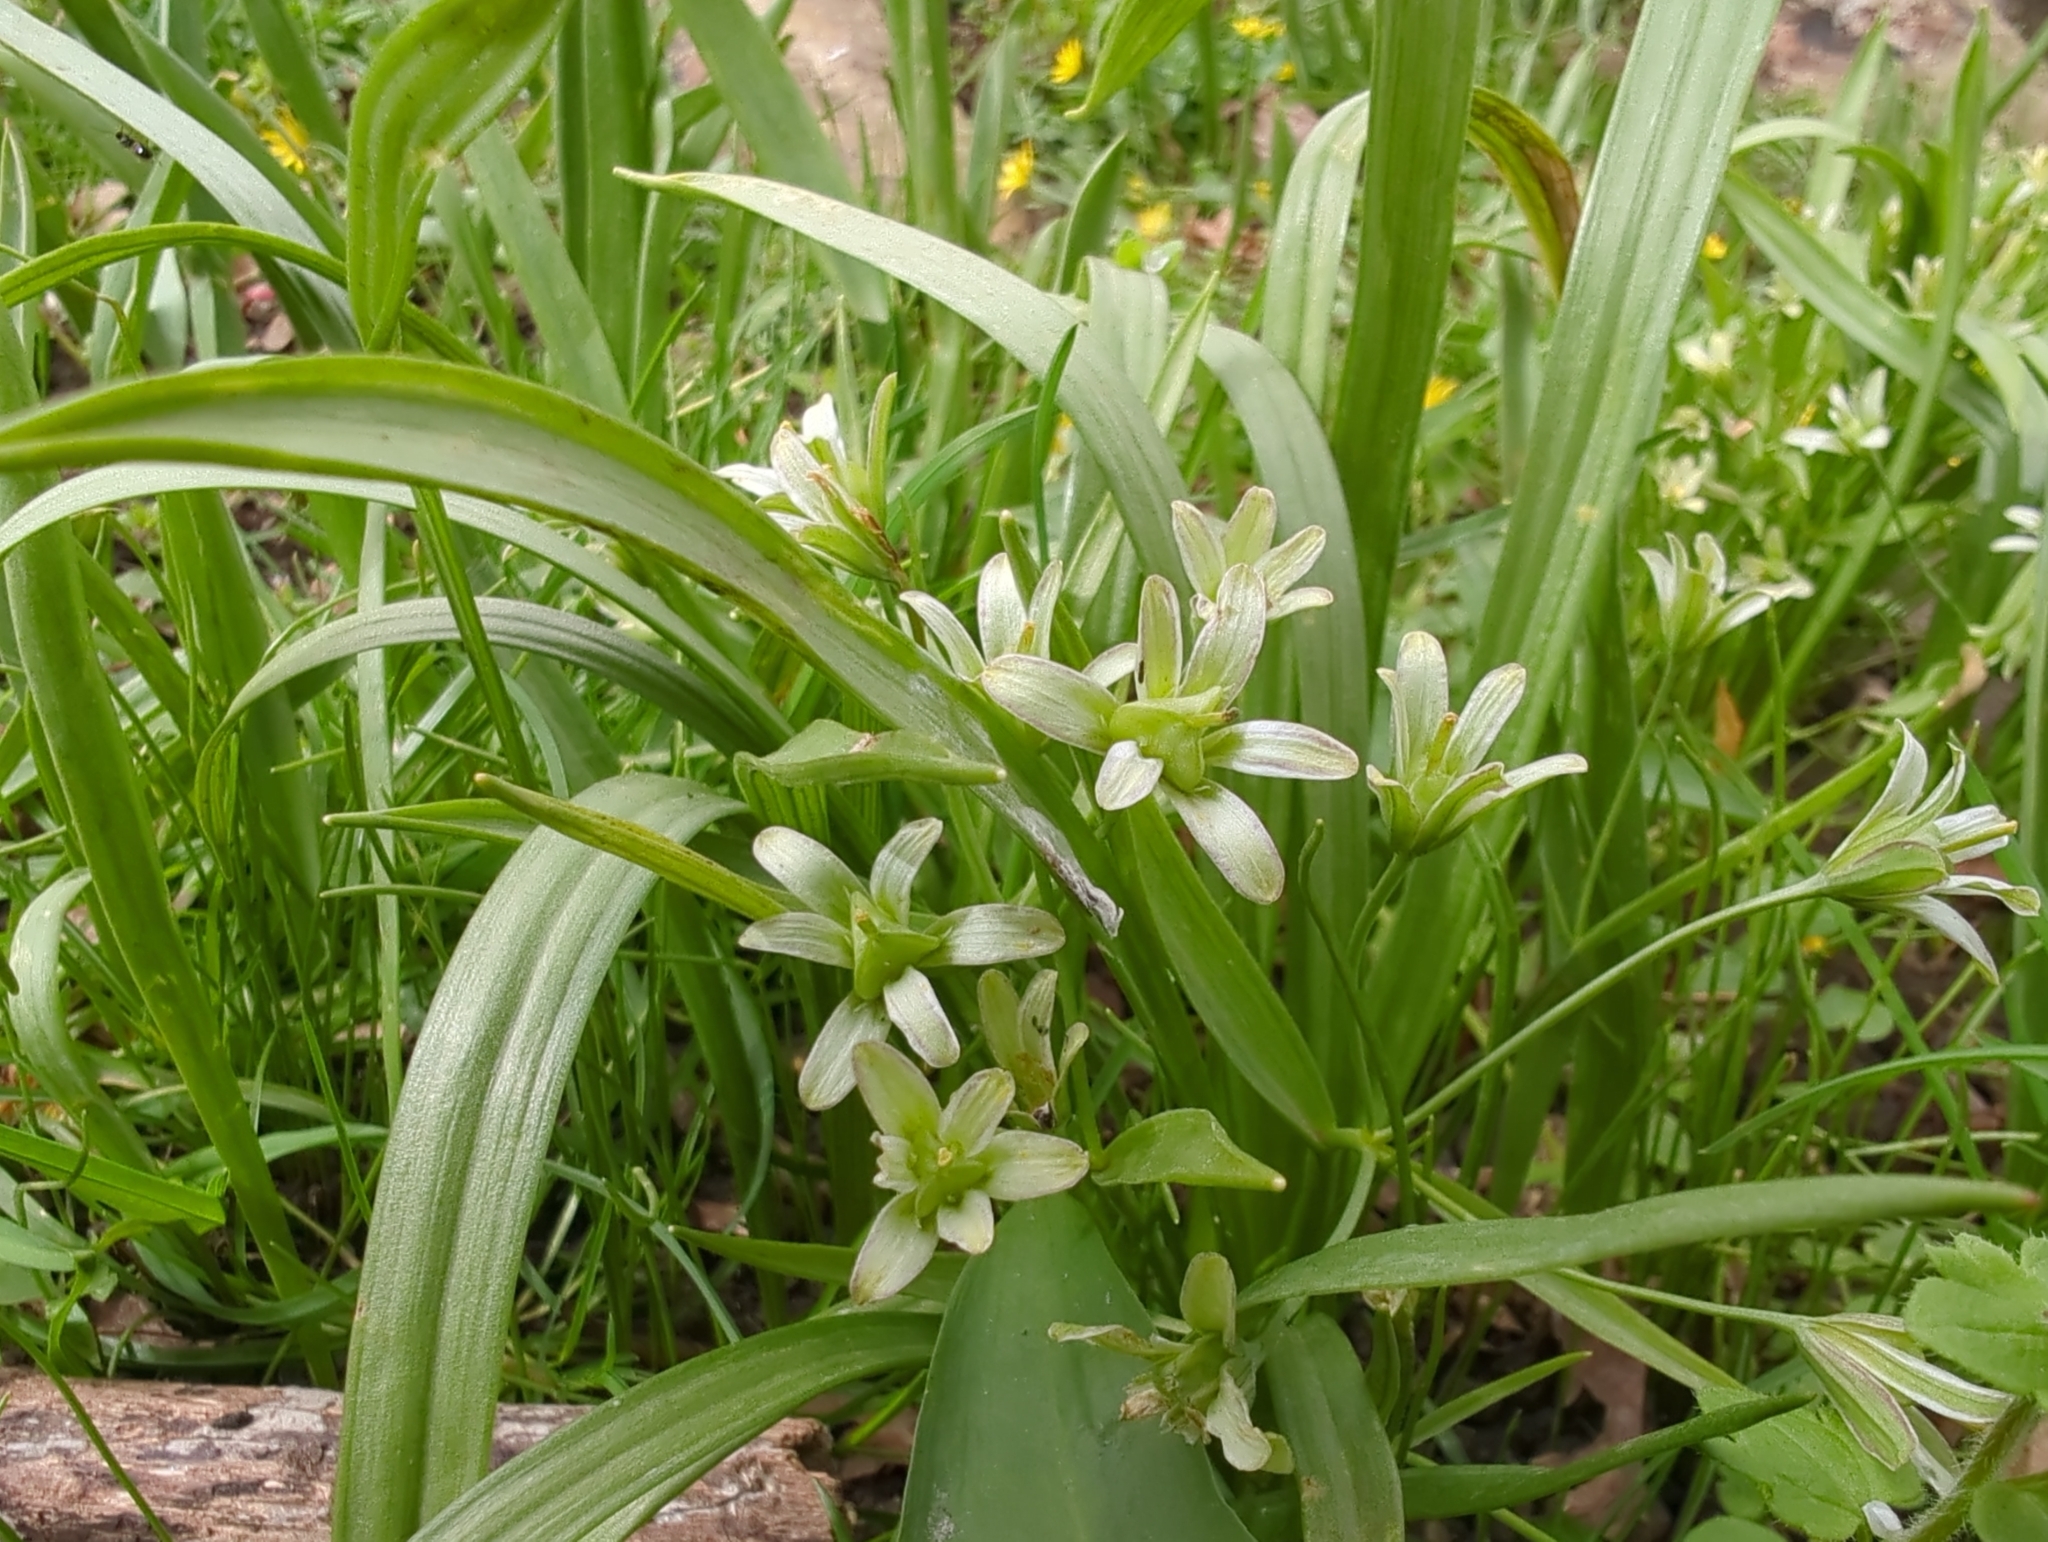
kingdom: Plantae
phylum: Tracheophyta
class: Liliopsida
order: Liliales
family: Liliaceae
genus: Gagea
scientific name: Gagea lutea
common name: Yellow star-of-bethlehem
